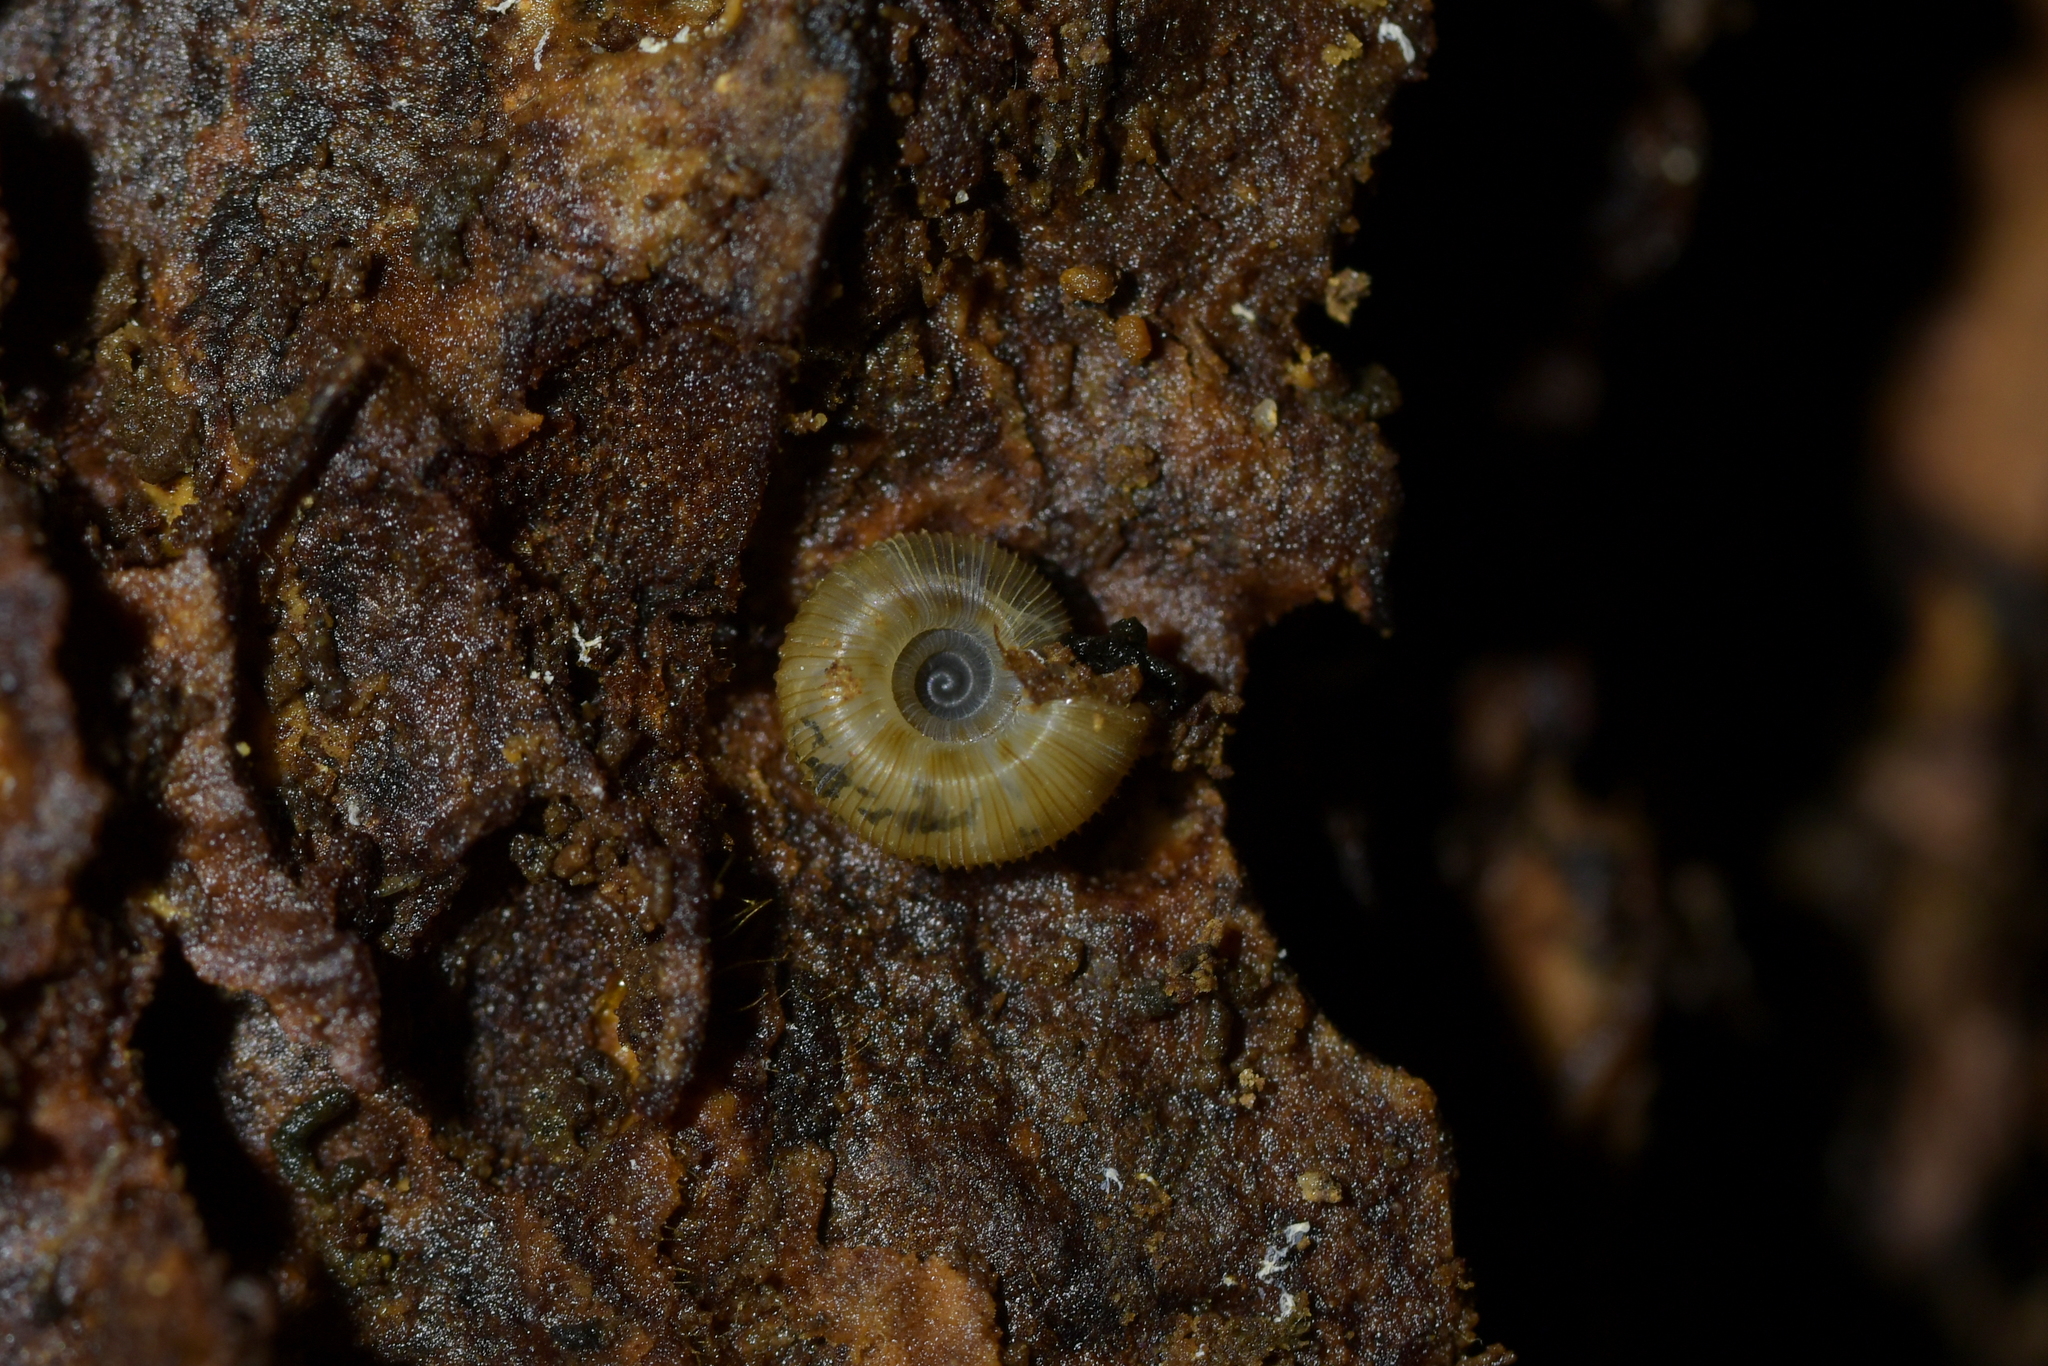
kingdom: Animalia
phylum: Mollusca
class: Gastropoda
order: Stylommatophora
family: Charopidae
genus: Cavellia
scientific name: Cavellia anguicula
